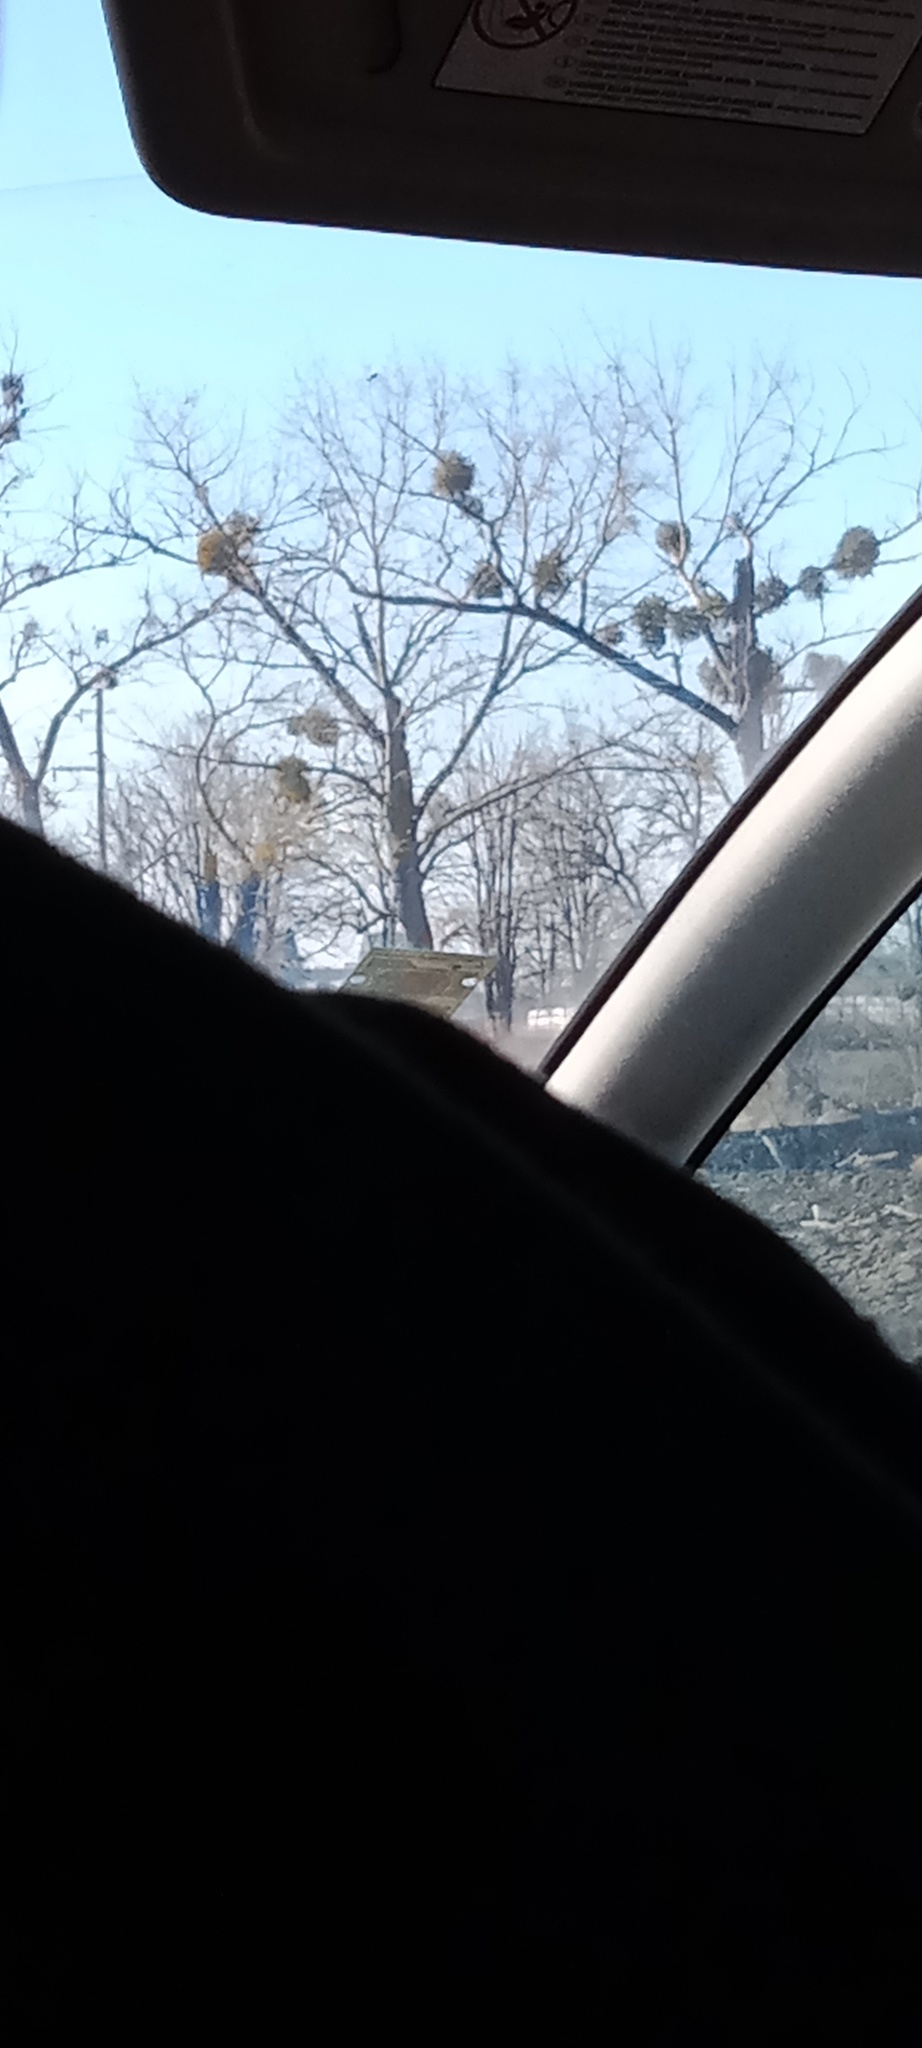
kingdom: Plantae
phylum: Tracheophyta
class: Magnoliopsida
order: Santalales
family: Viscaceae
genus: Viscum
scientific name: Viscum album
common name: Mistletoe
